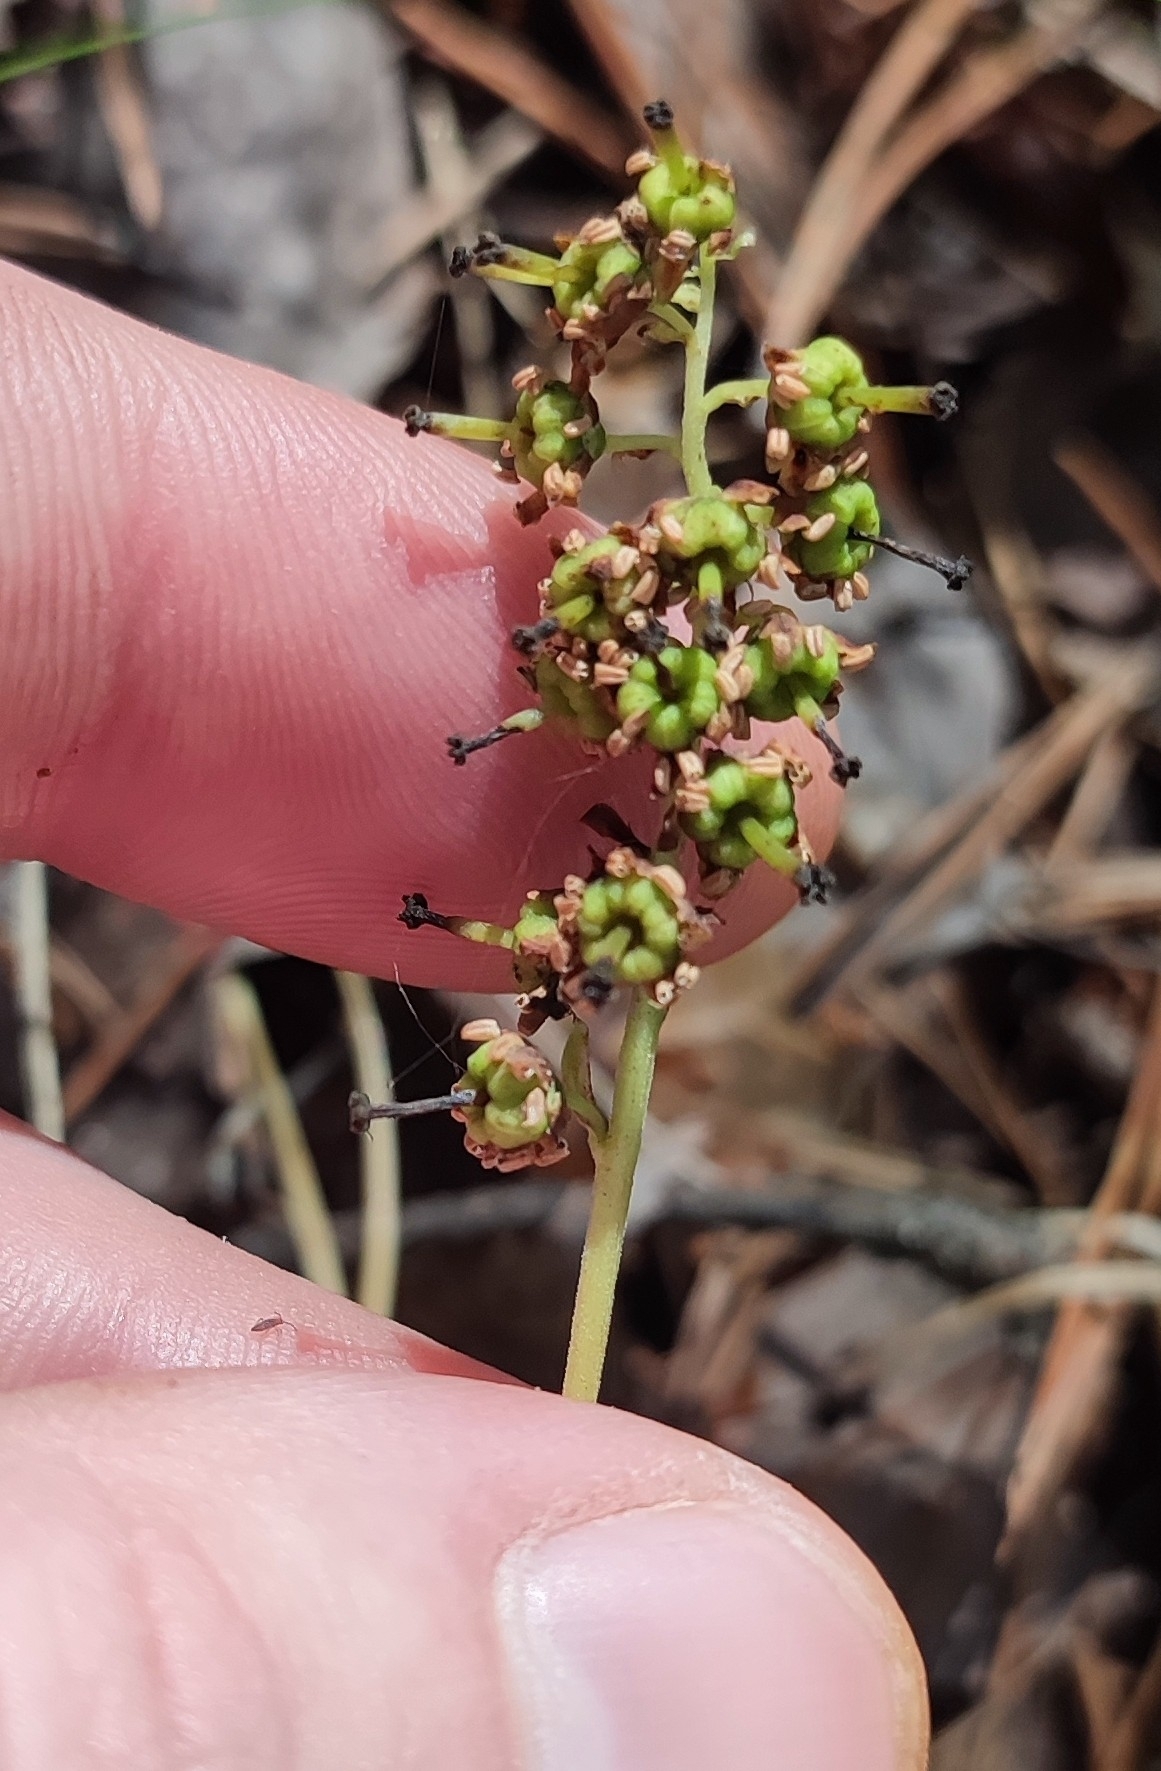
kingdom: Plantae
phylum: Tracheophyta
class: Magnoliopsida
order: Ericales
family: Ericaceae
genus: Orthilia
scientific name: Orthilia secunda
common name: One-sided orthilia
